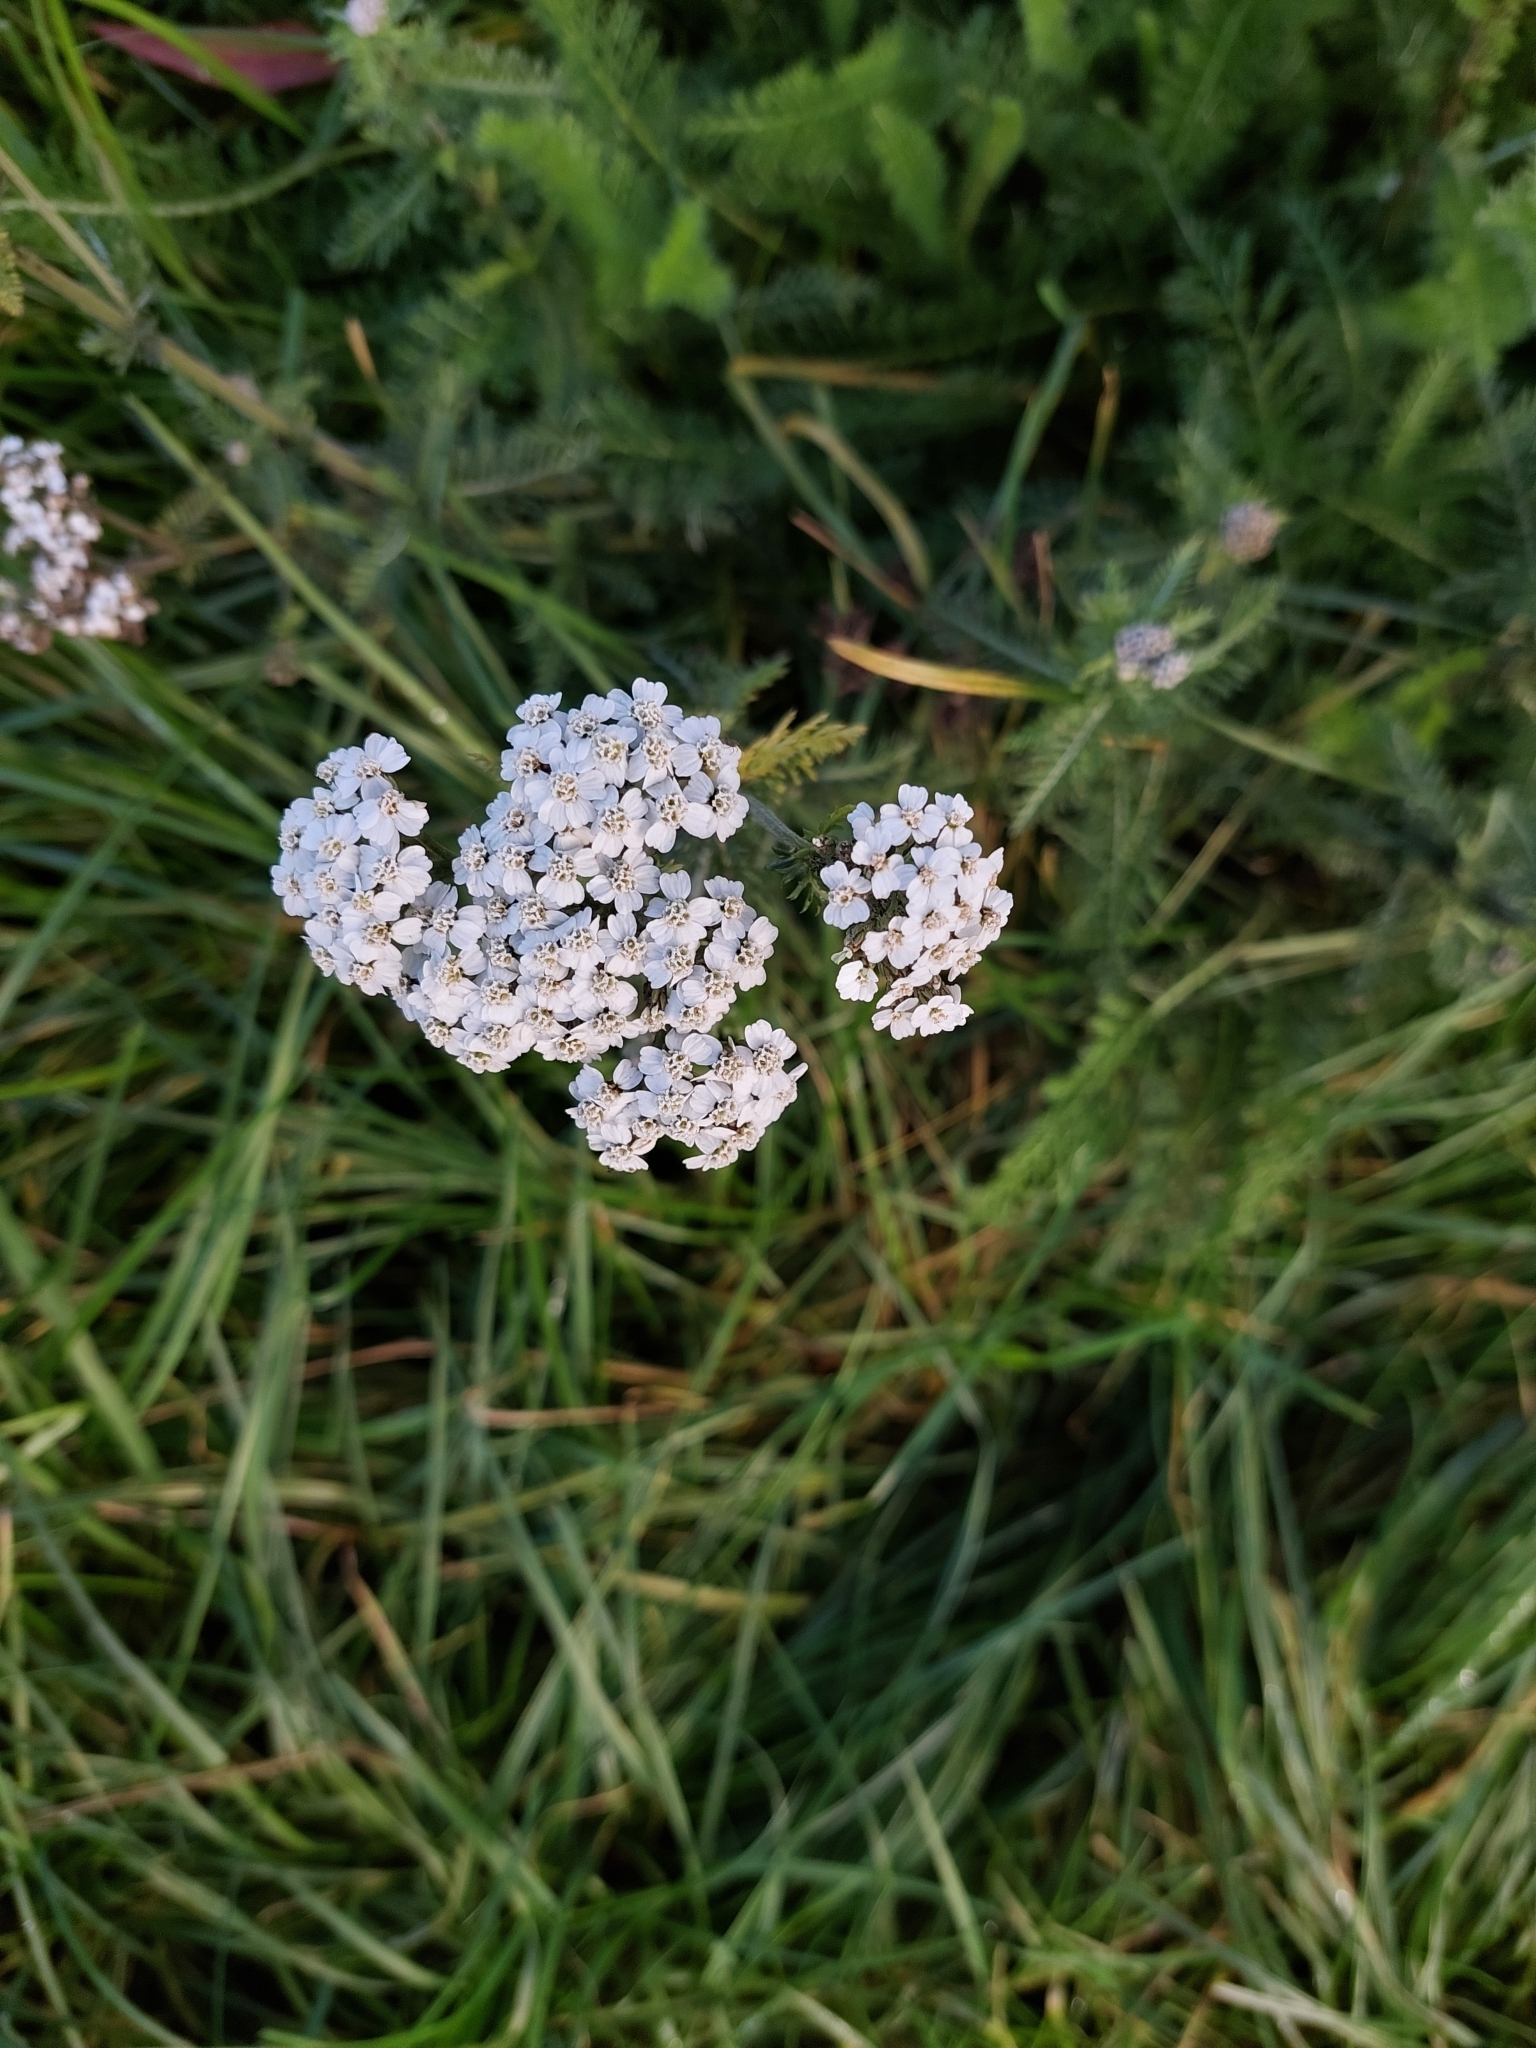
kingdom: Plantae
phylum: Tracheophyta
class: Magnoliopsida
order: Asterales
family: Asteraceae
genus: Achillea
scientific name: Achillea millefolium
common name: Yarrow
